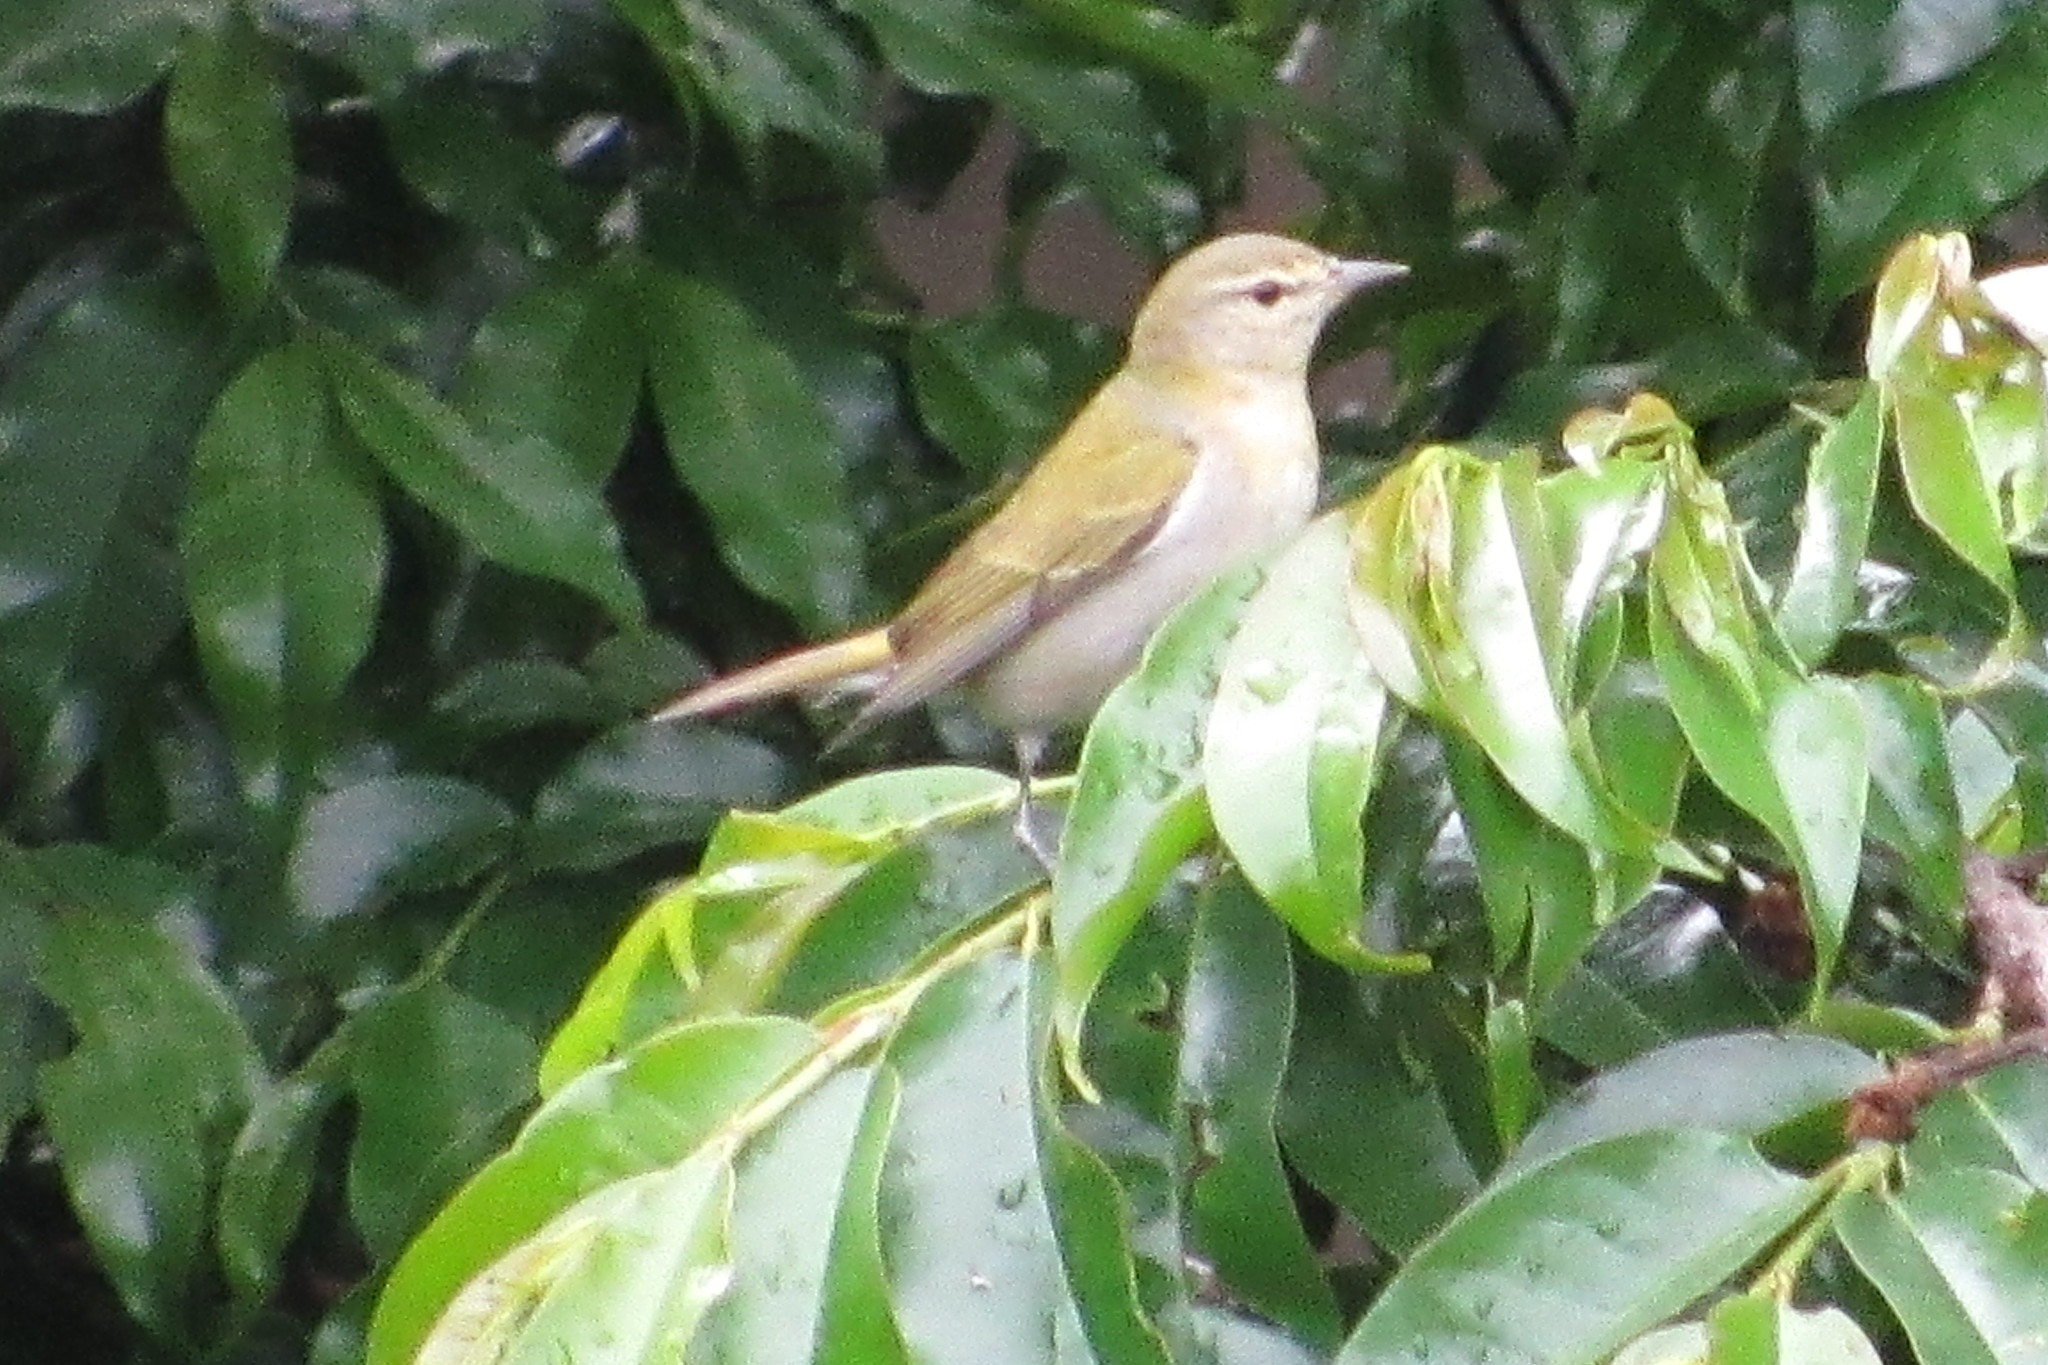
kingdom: Animalia
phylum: Chordata
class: Aves
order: Passeriformes
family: Parulidae
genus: Leiothlypis
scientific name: Leiothlypis peregrina
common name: Tennessee warbler
